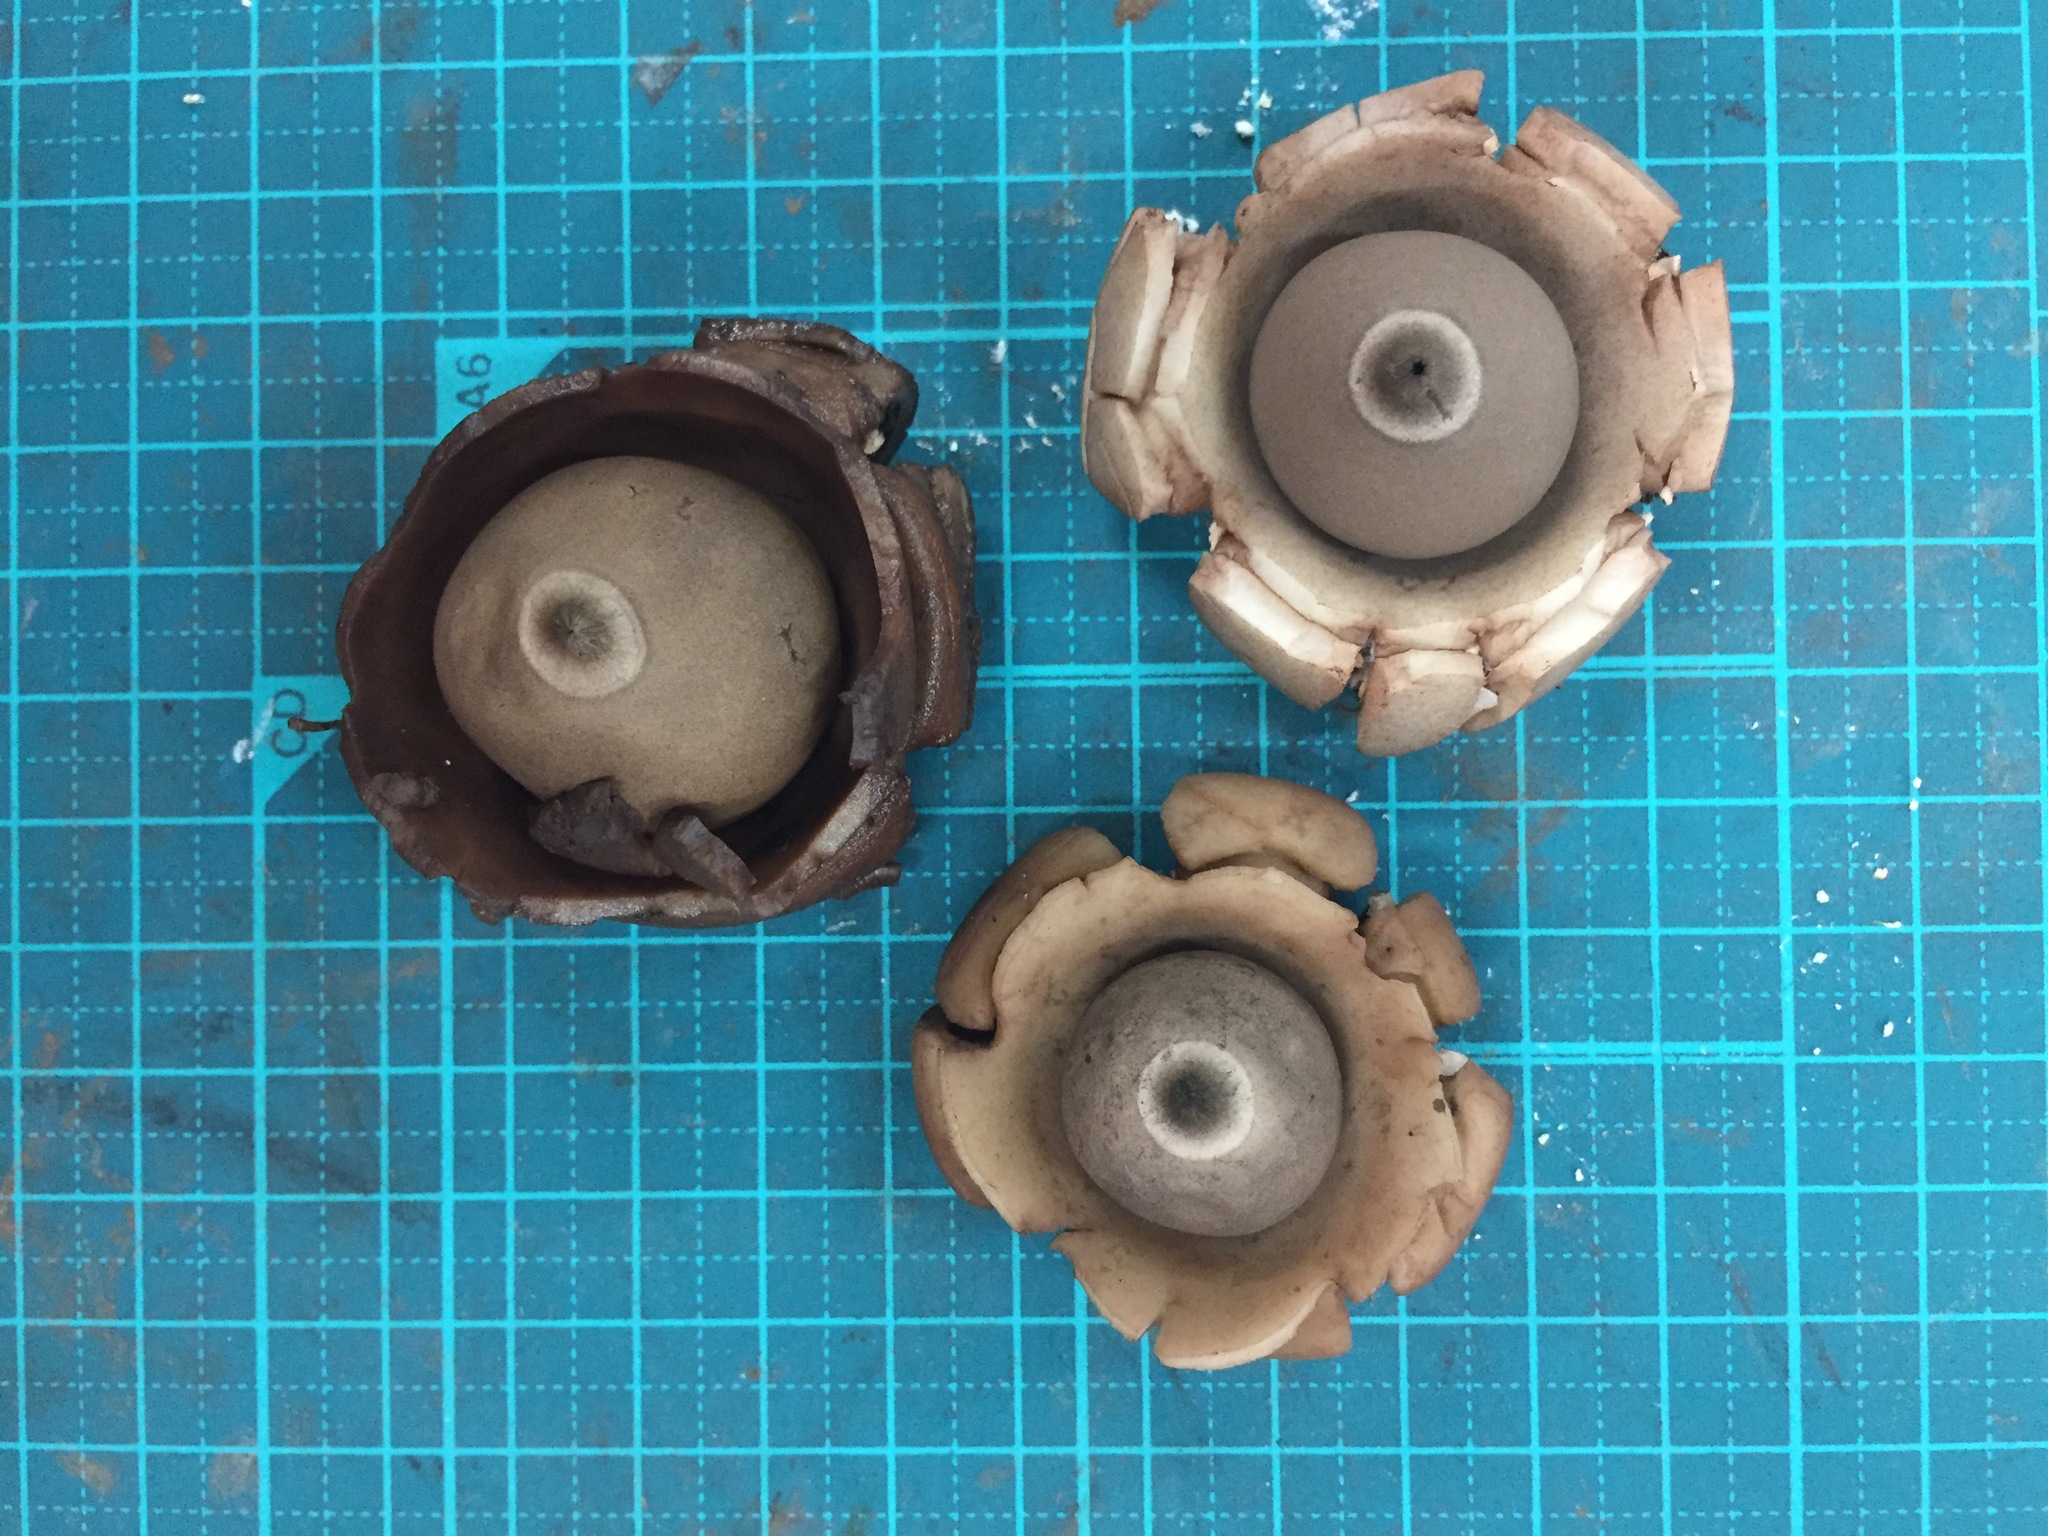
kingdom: Fungi
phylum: Basidiomycota
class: Agaricomycetes
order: Geastrales
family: Geastraceae
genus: Geastrum
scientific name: Geastrum triplex
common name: Collared earthstar
